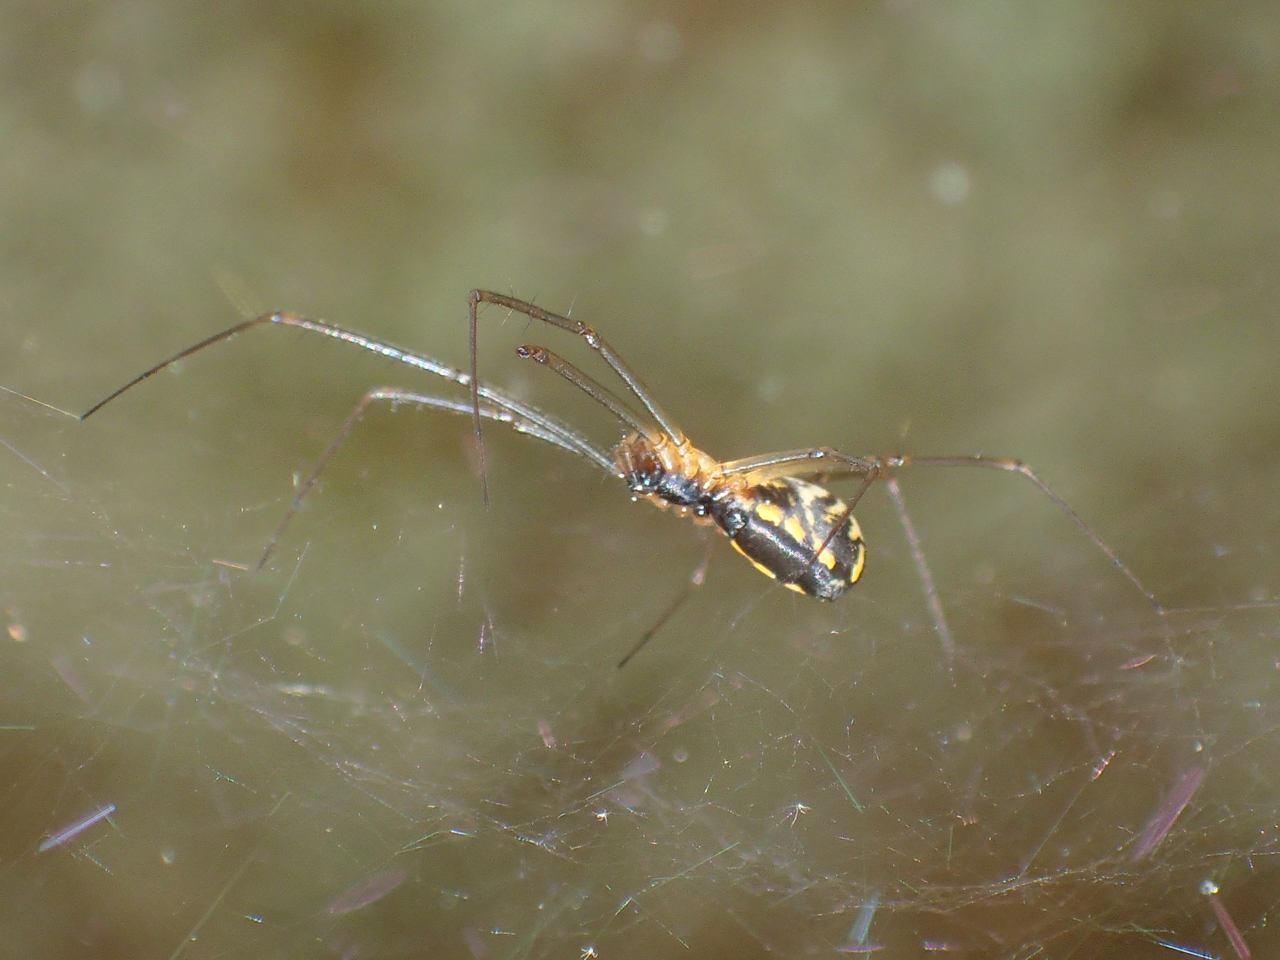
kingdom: Animalia
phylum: Arthropoda
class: Arachnida
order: Araneae
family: Linyphiidae
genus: Neriene
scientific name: Neriene radiata
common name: Filmy dome spider
